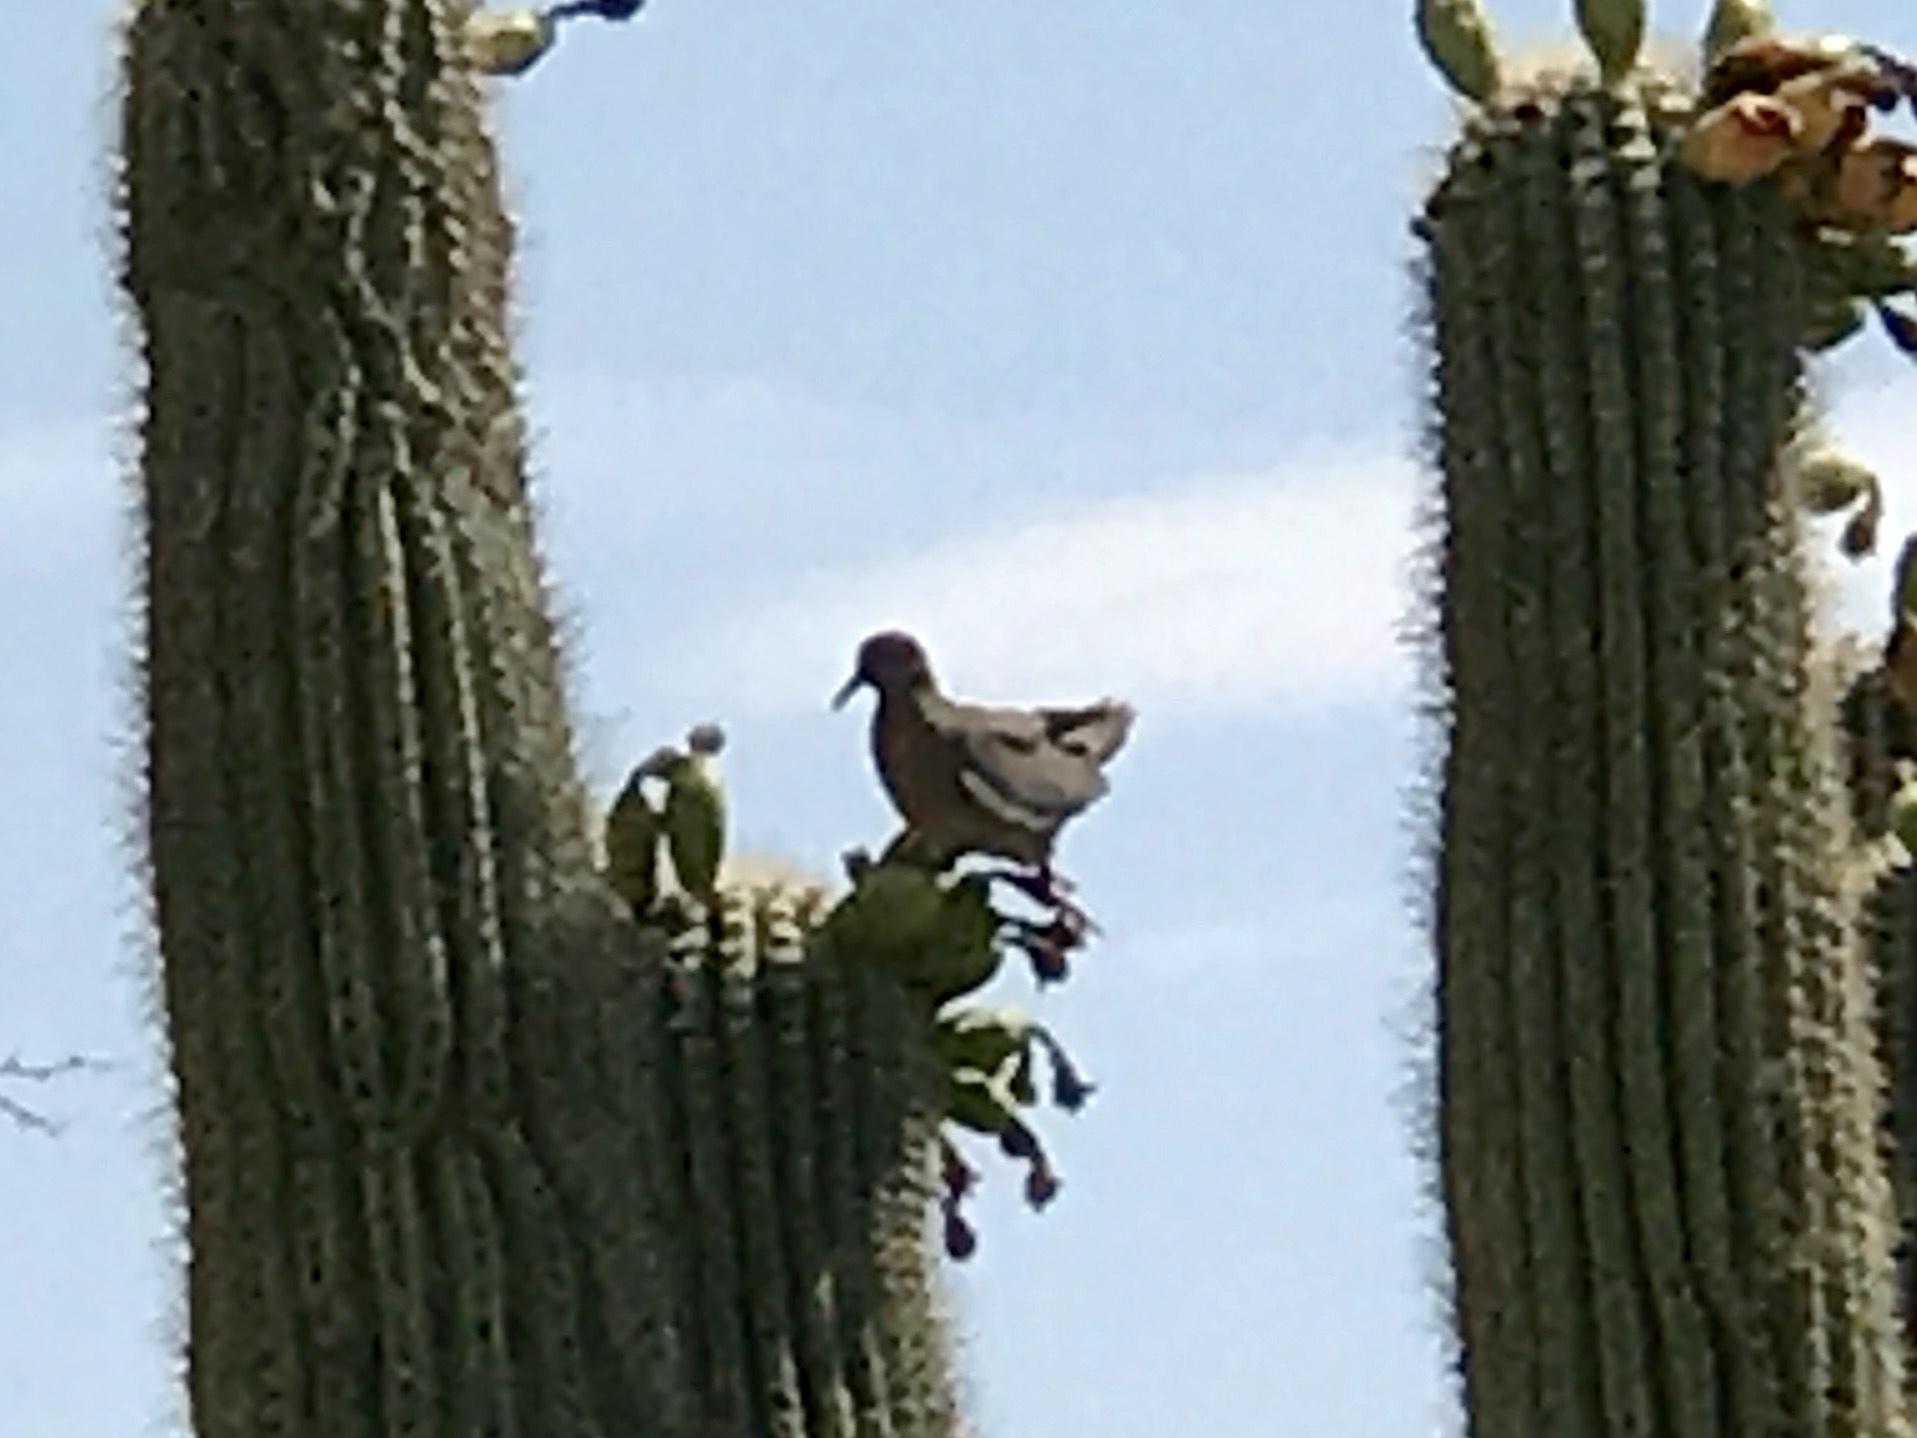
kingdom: Animalia
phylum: Chordata
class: Aves
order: Columbiformes
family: Columbidae
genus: Zenaida
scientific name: Zenaida asiatica
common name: White-winged dove
